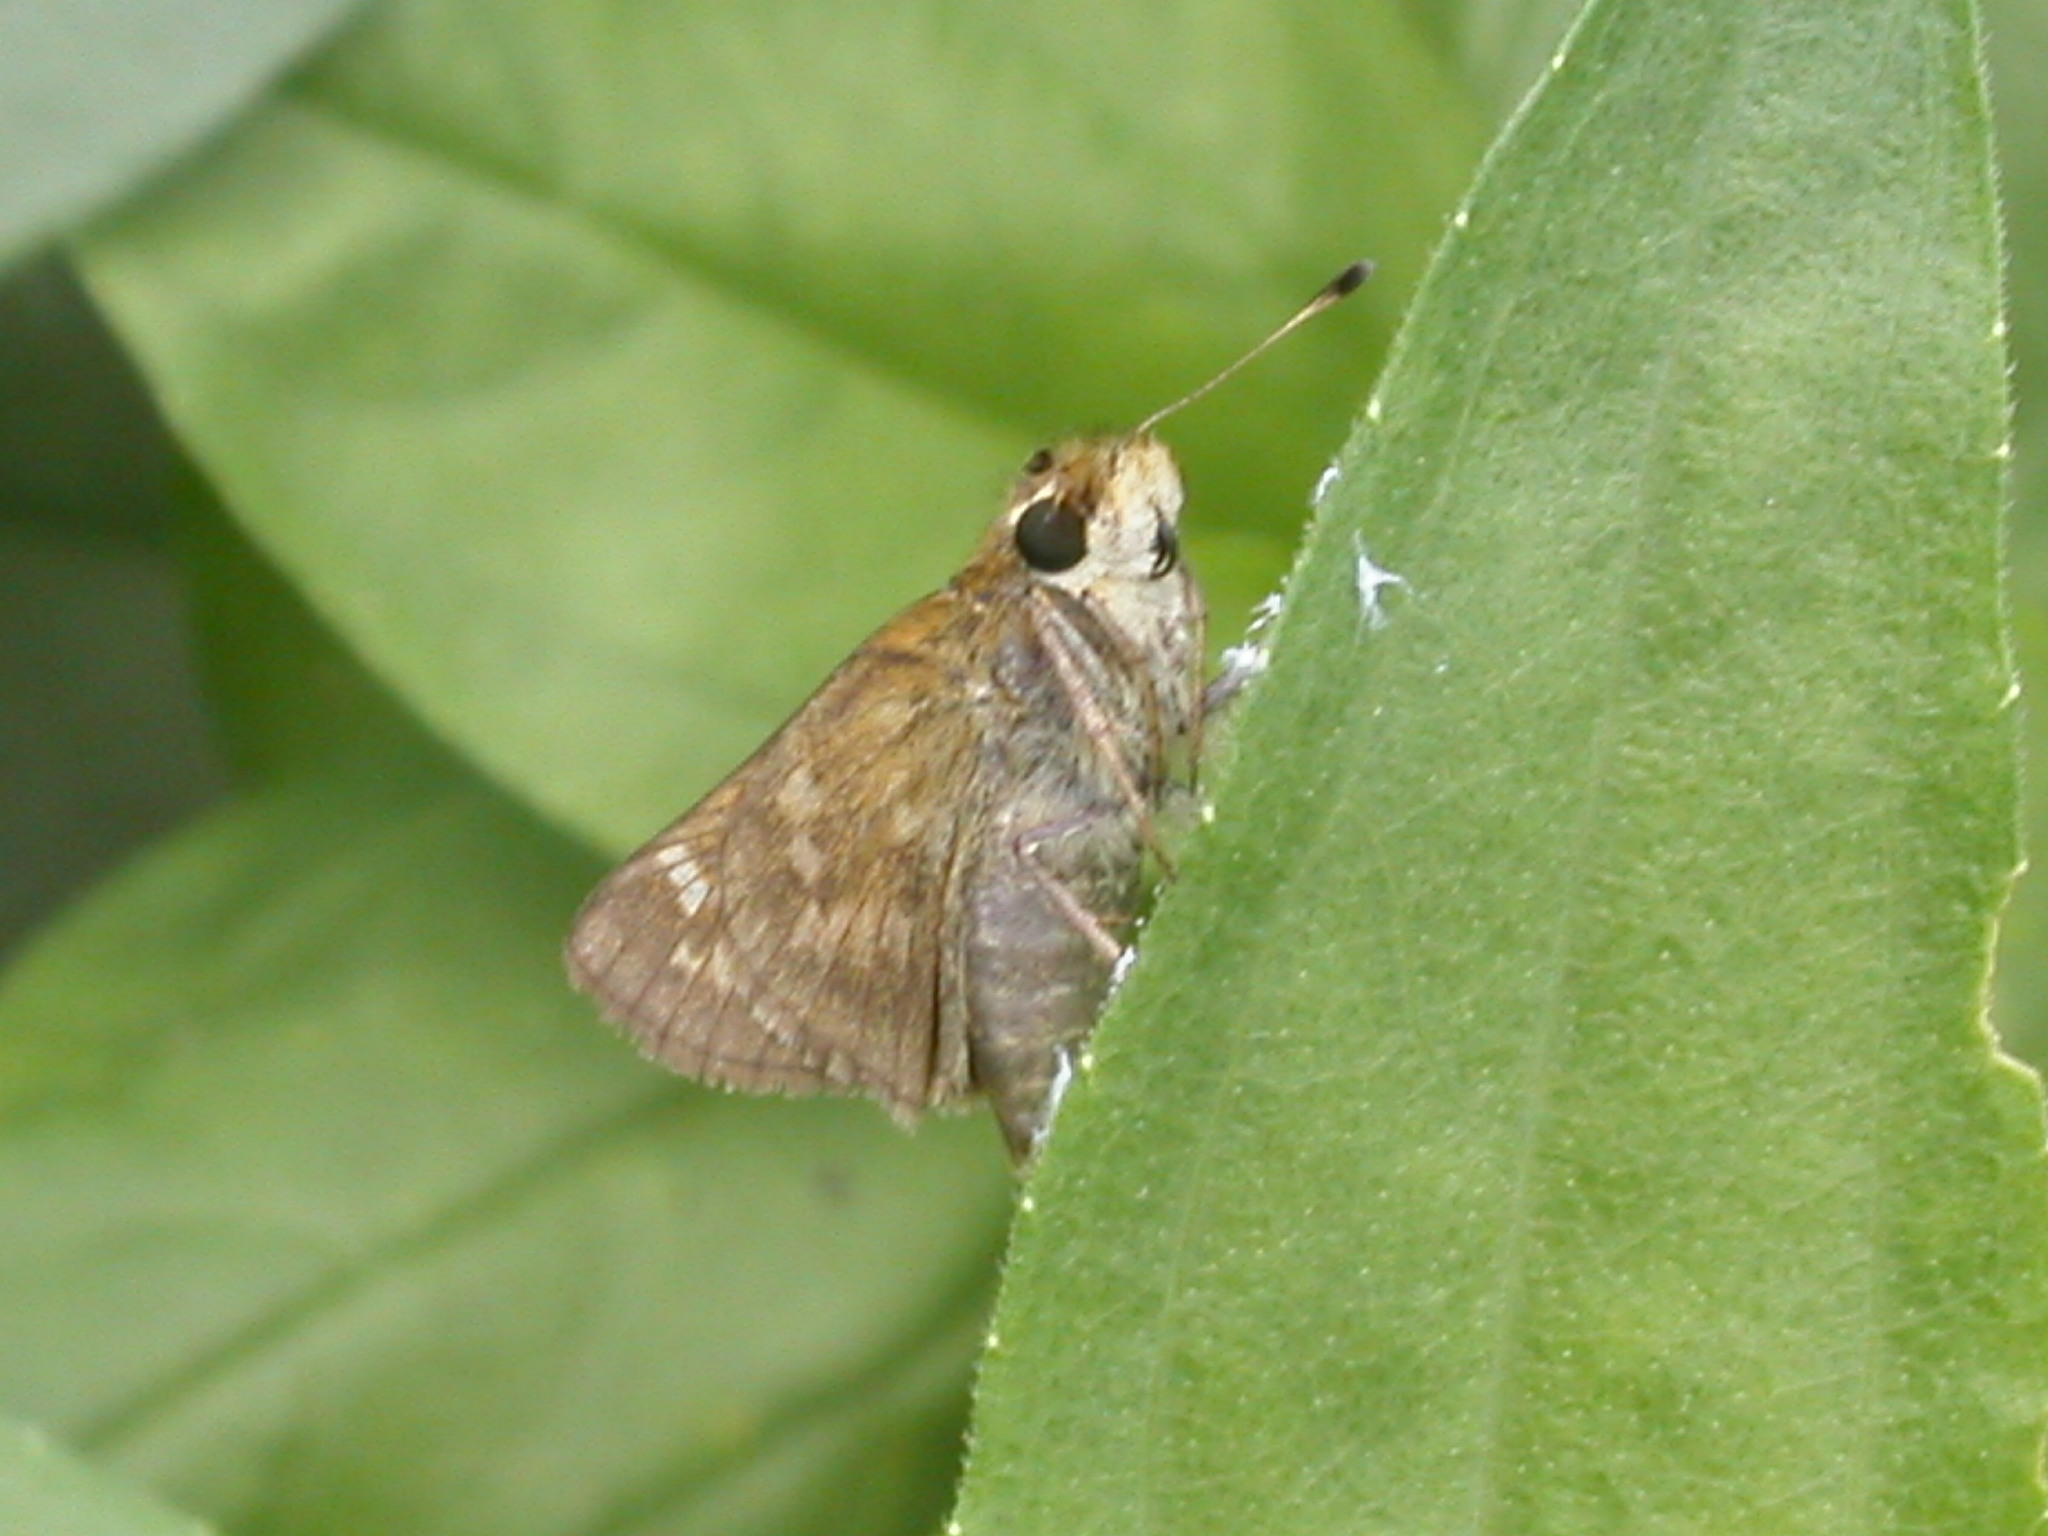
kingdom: Animalia
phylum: Arthropoda
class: Insecta
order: Lepidoptera
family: Hesperiidae
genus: Atalopedes
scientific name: Atalopedes
